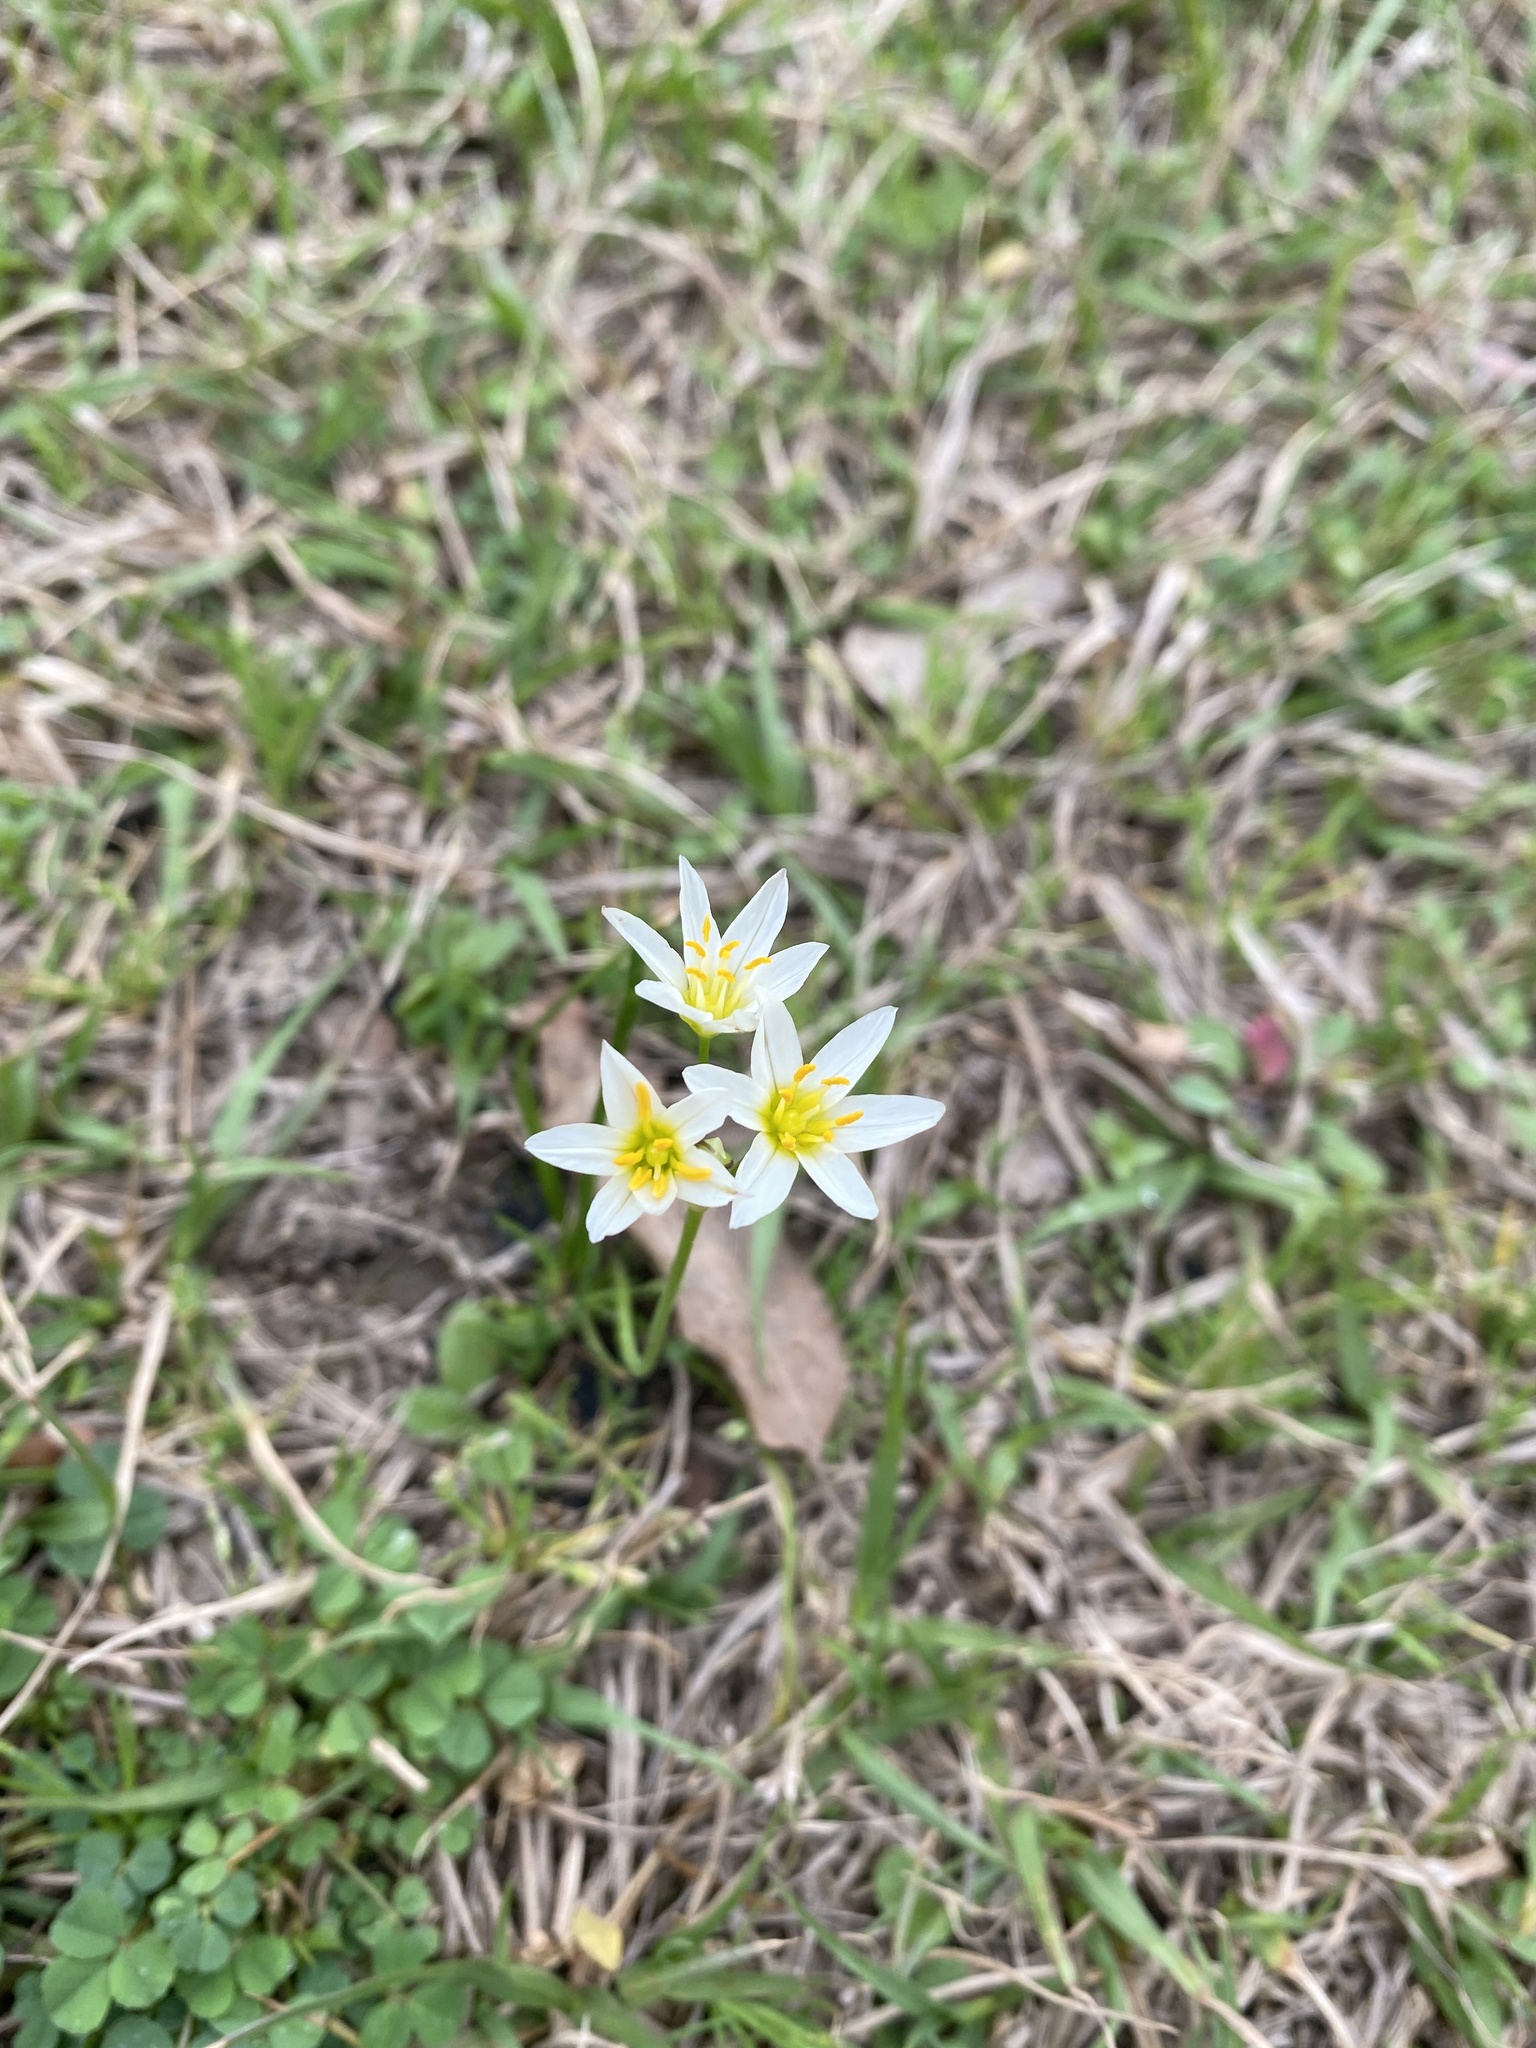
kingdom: Plantae
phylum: Tracheophyta
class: Liliopsida
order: Asparagales
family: Amaryllidaceae
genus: Nothoscordum
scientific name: Nothoscordum bivalve
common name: Crow-poison
